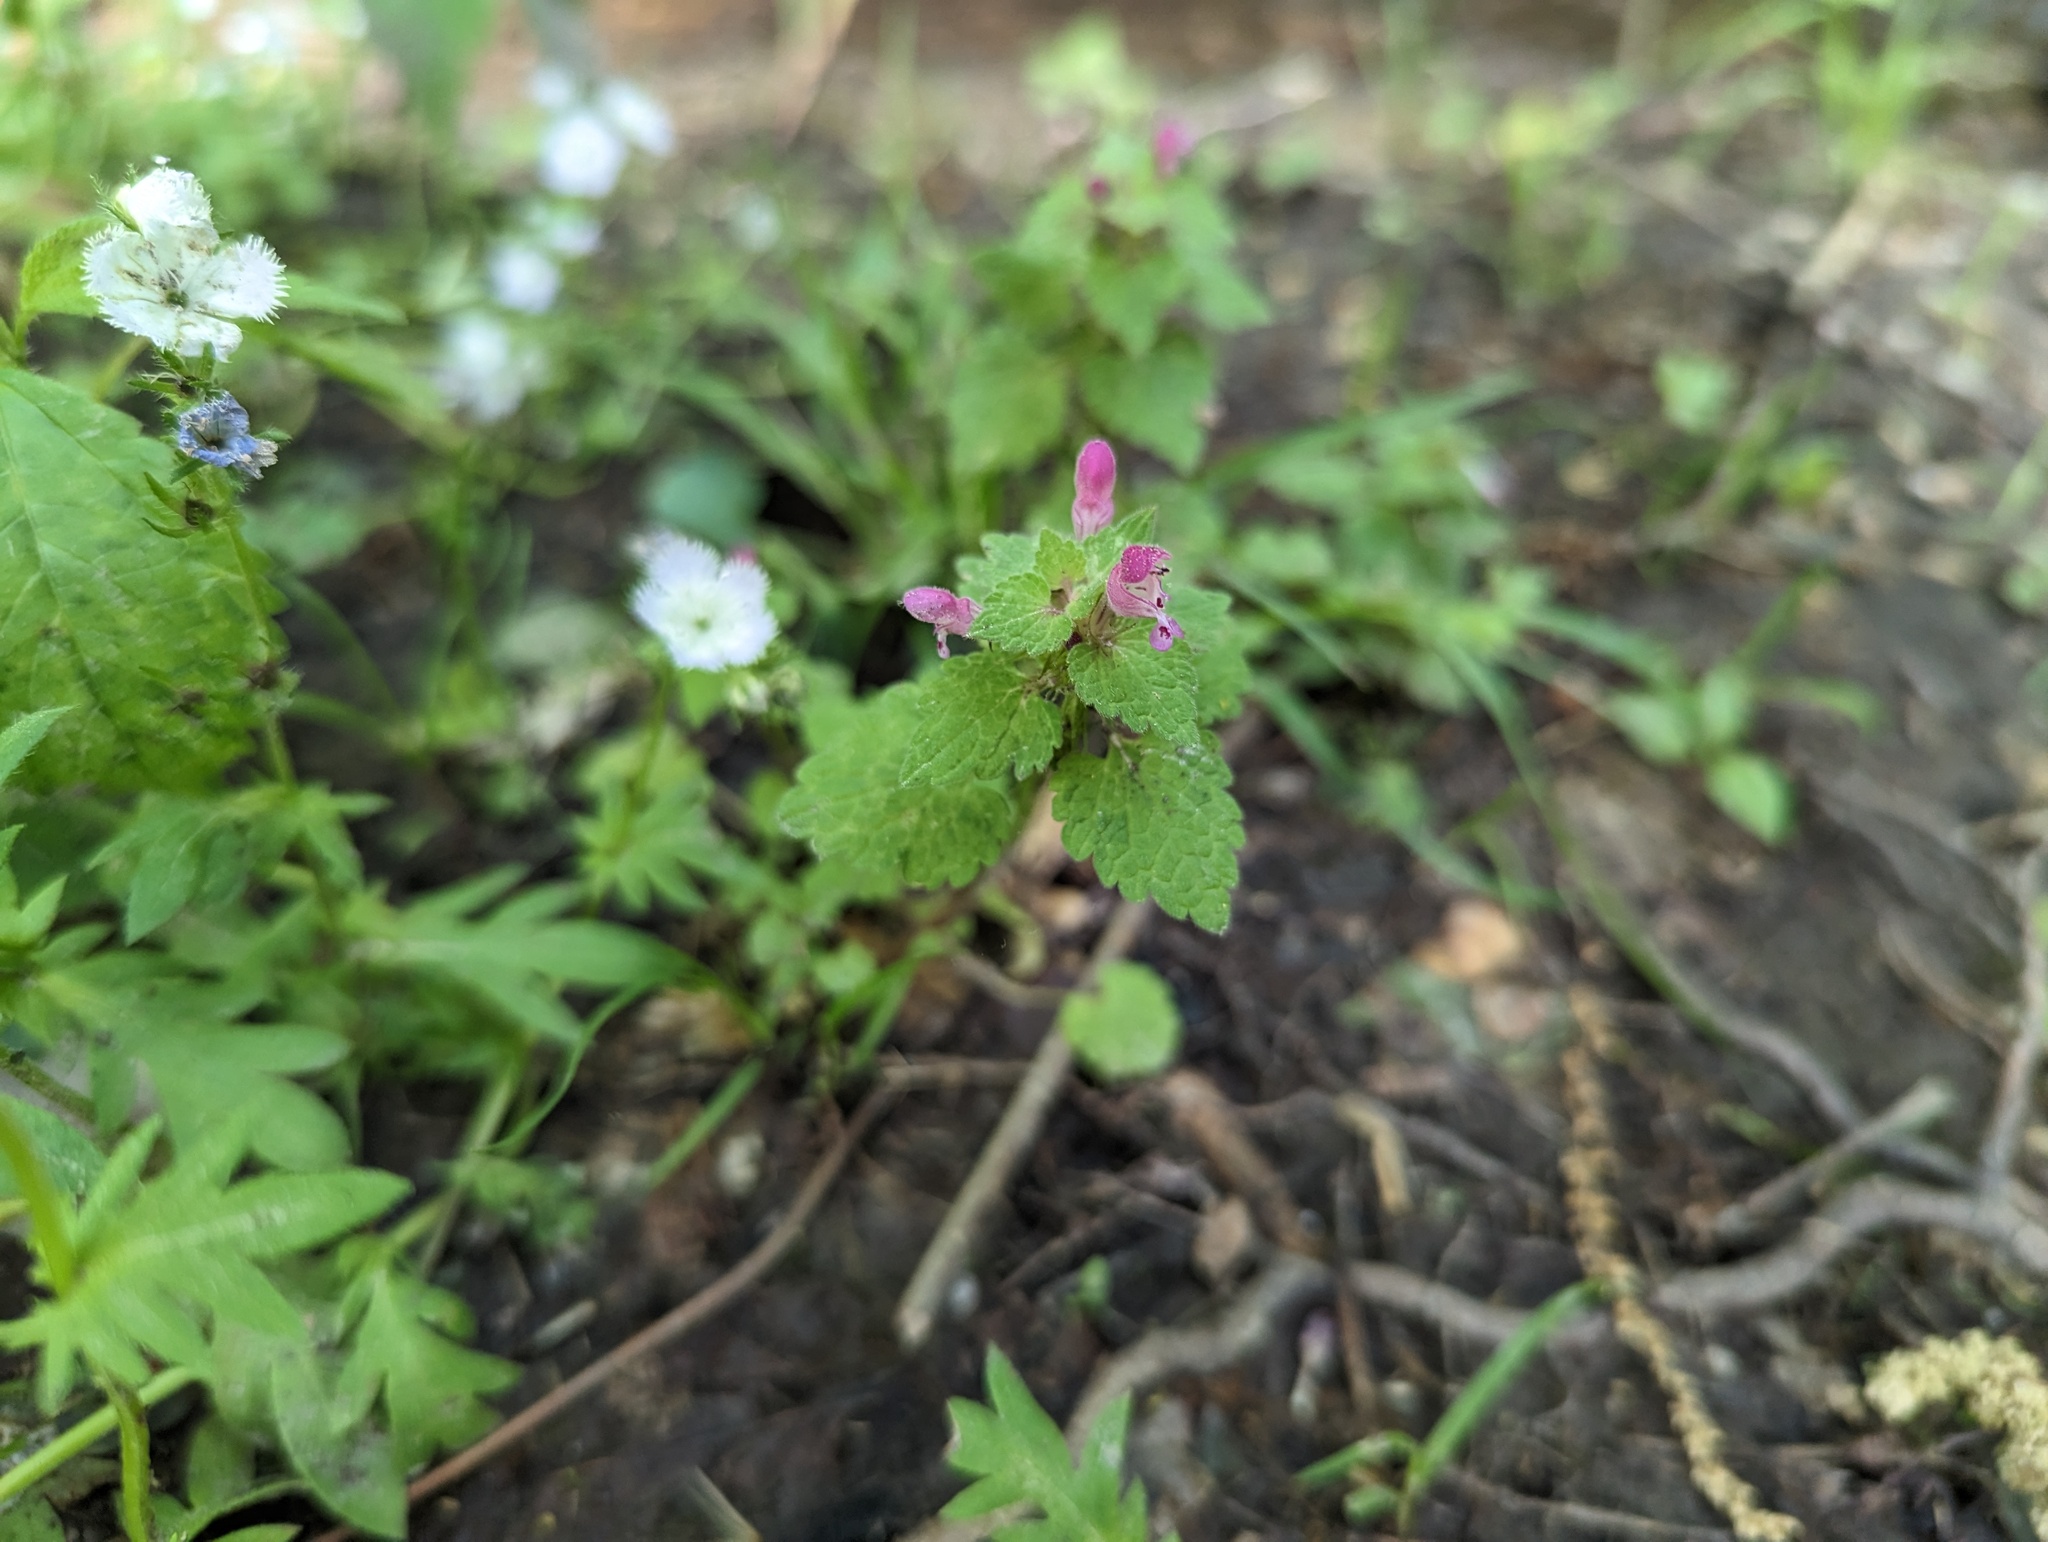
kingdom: Plantae
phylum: Tracheophyta
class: Magnoliopsida
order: Lamiales
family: Lamiaceae
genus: Lamium
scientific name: Lamium purpureum
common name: Red dead-nettle
